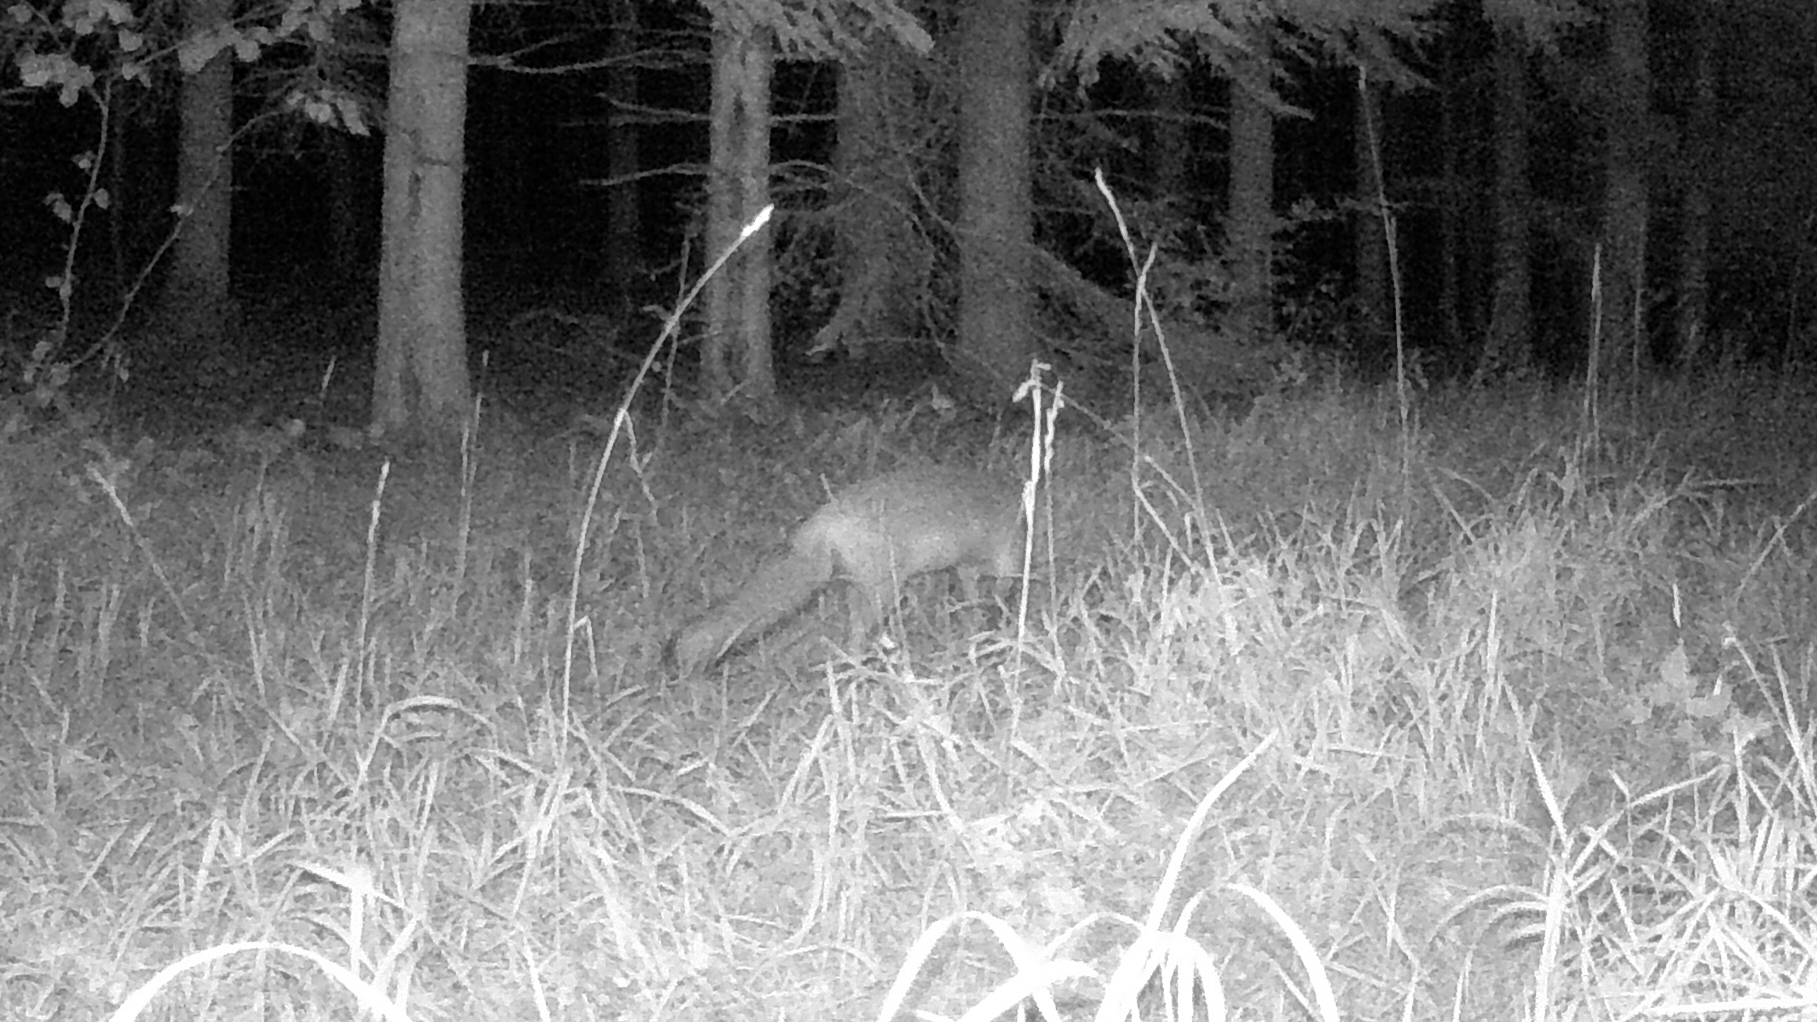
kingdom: Animalia
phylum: Chordata
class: Mammalia
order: Carnivora
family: Canidae
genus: Vulpes
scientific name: Vulpes vulpes
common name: Red fox
